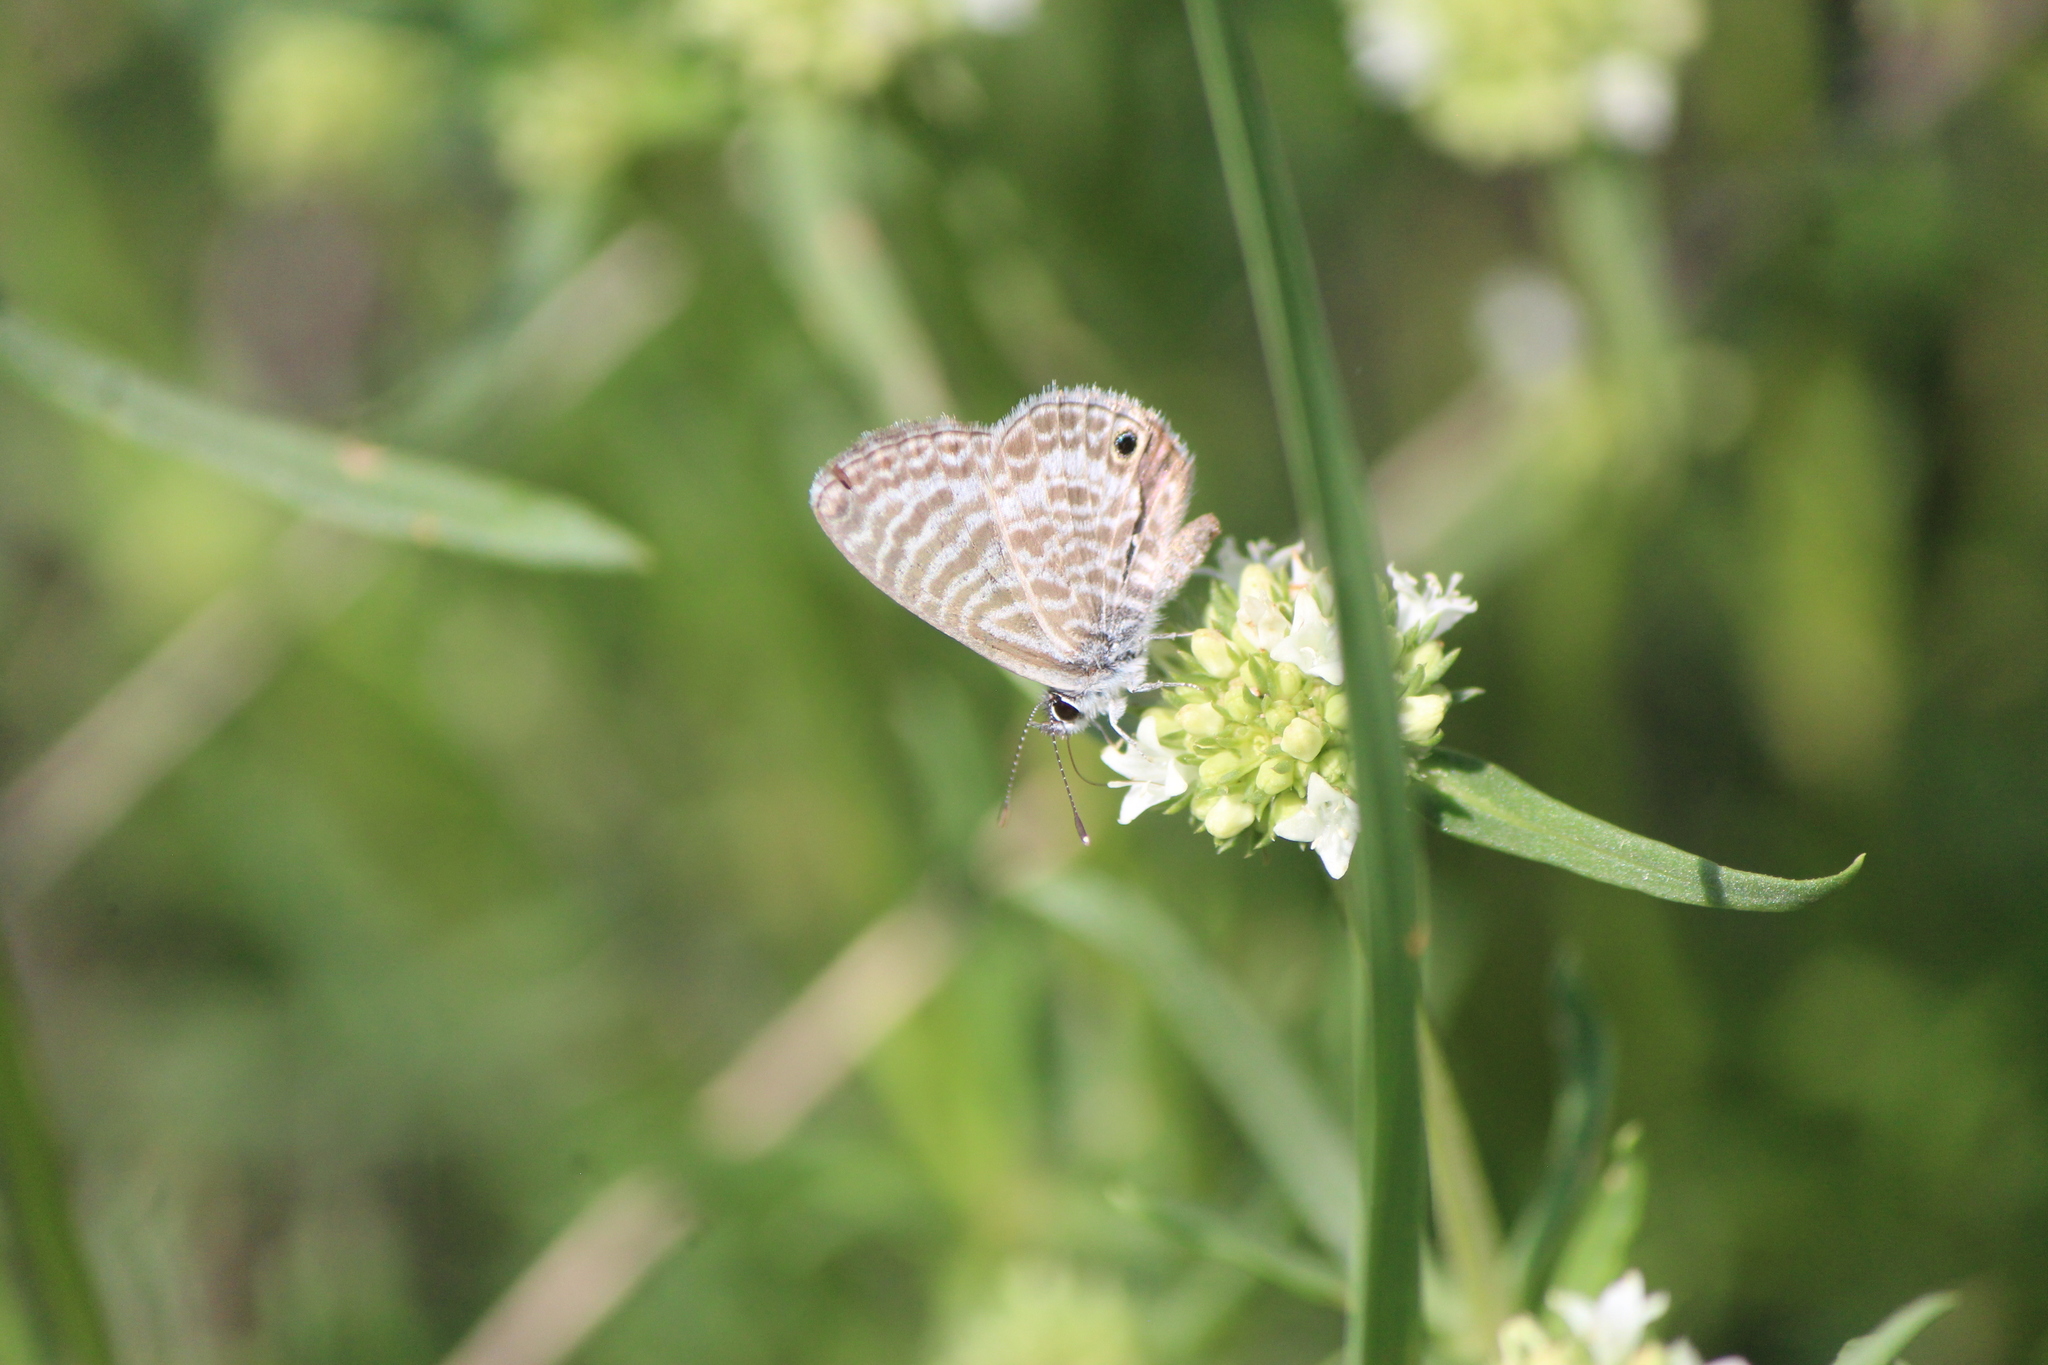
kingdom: Animalia
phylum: Arthropoda
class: Insecta
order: Lepidoptera
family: Lycaenidae
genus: Leptotes
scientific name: Leptotes marina
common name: Marine blue
